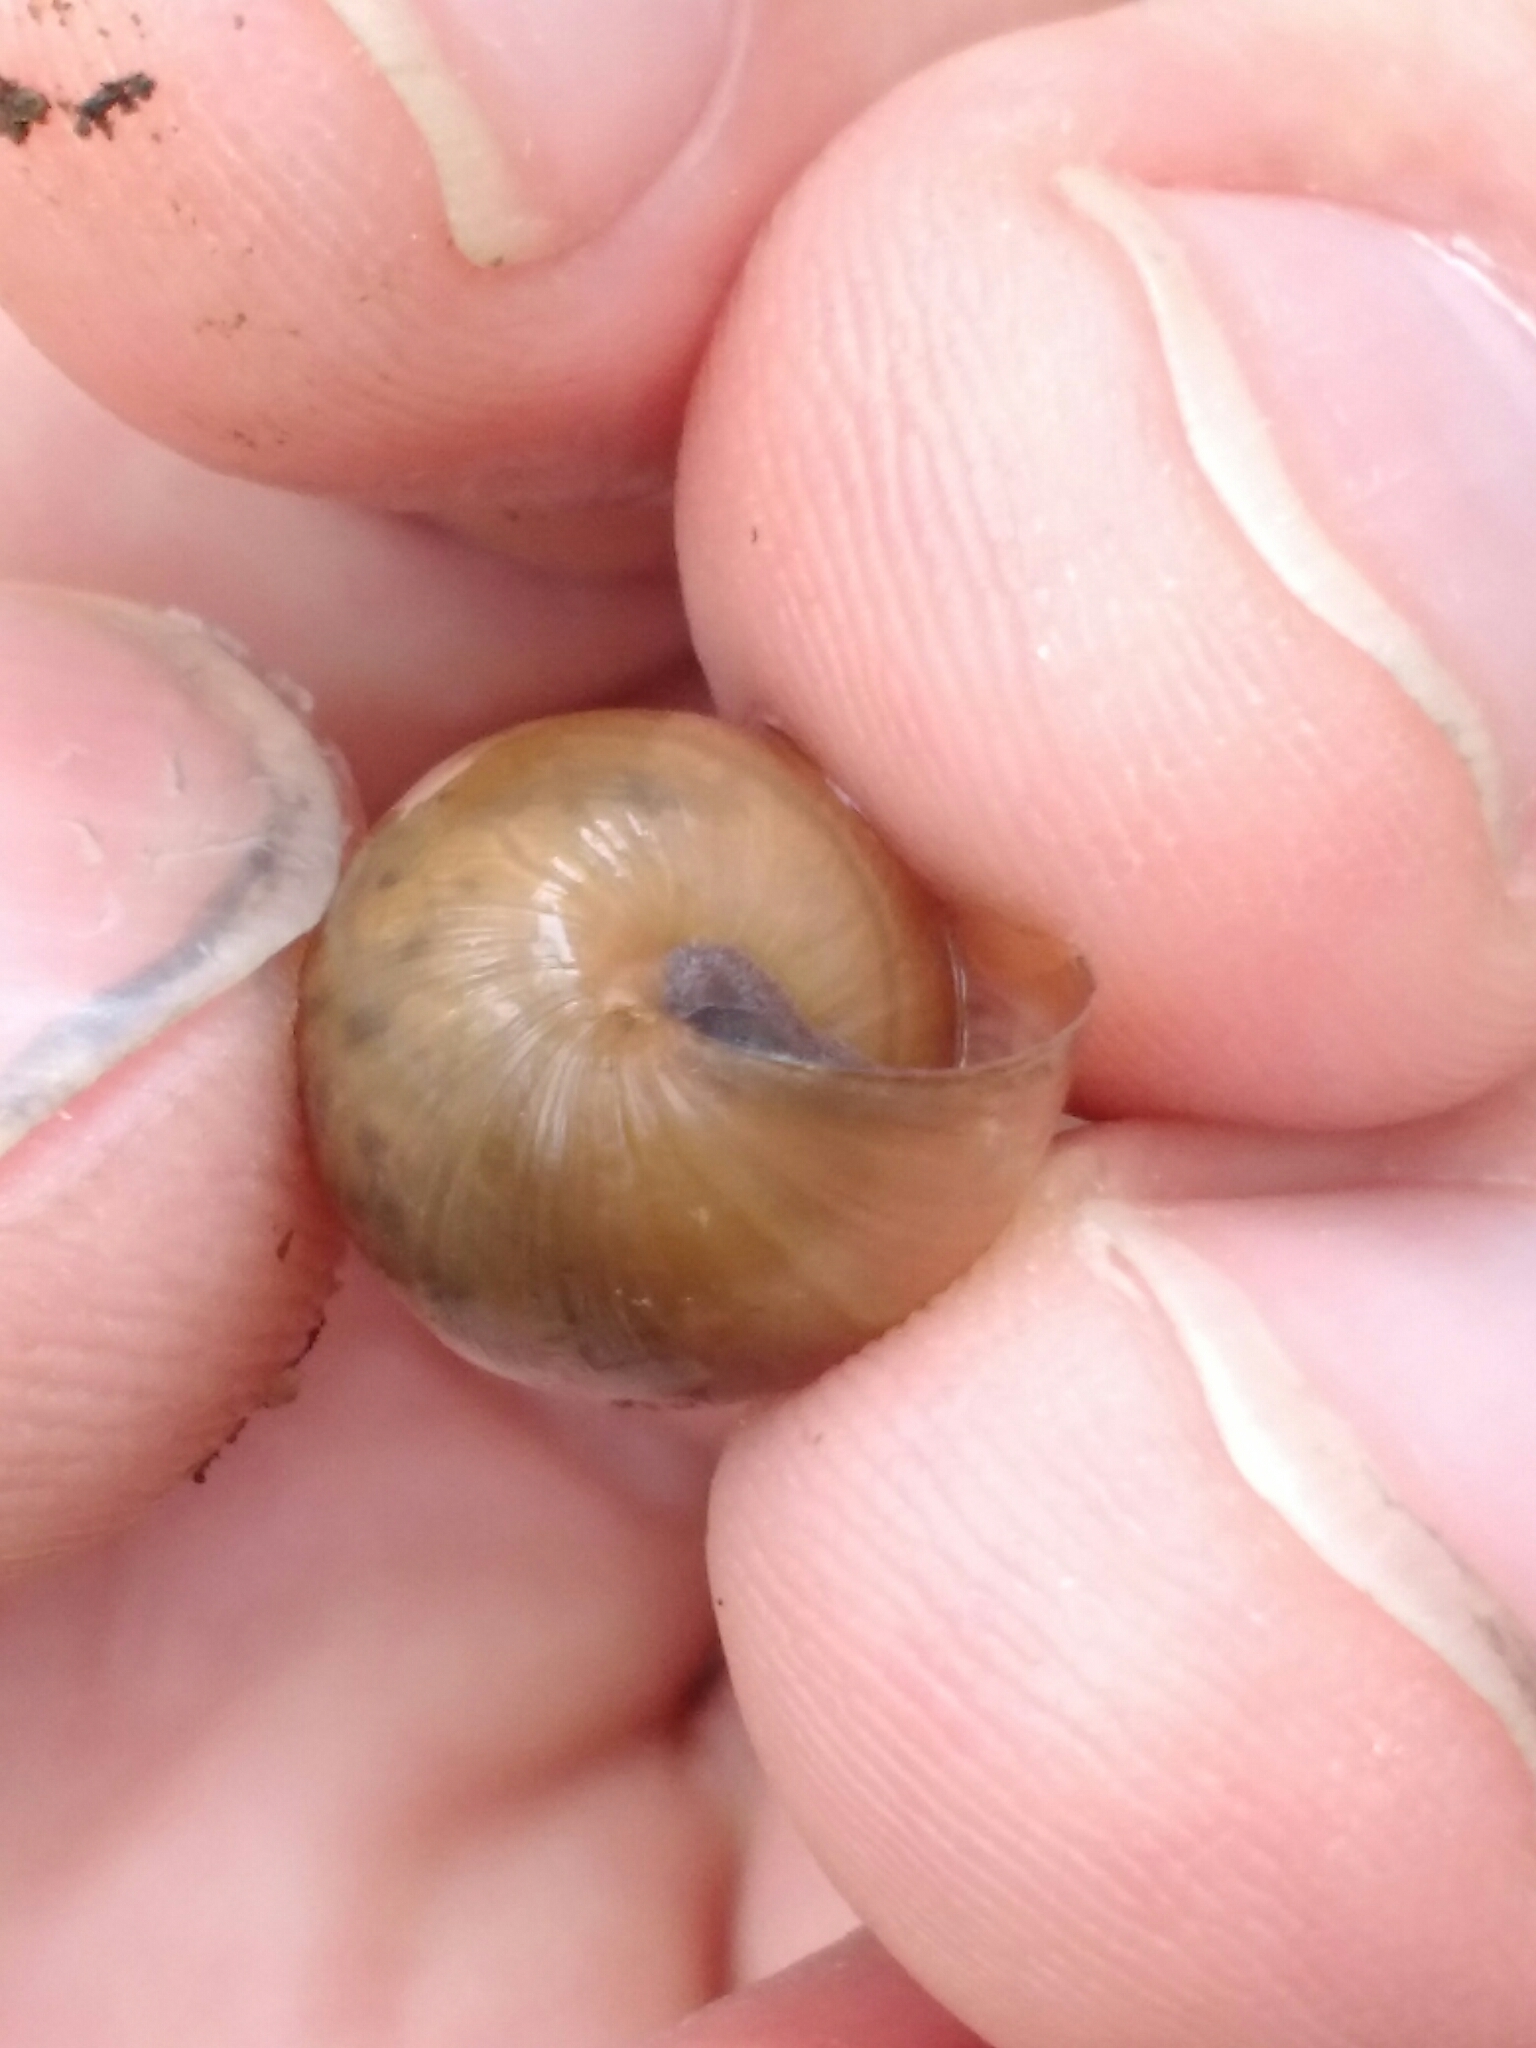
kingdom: Animalia
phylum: Mollusca
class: Gastropoda
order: Stylommatophora
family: Achatinidae
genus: Rumina
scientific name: Rumina decollata
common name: Decollate snail
